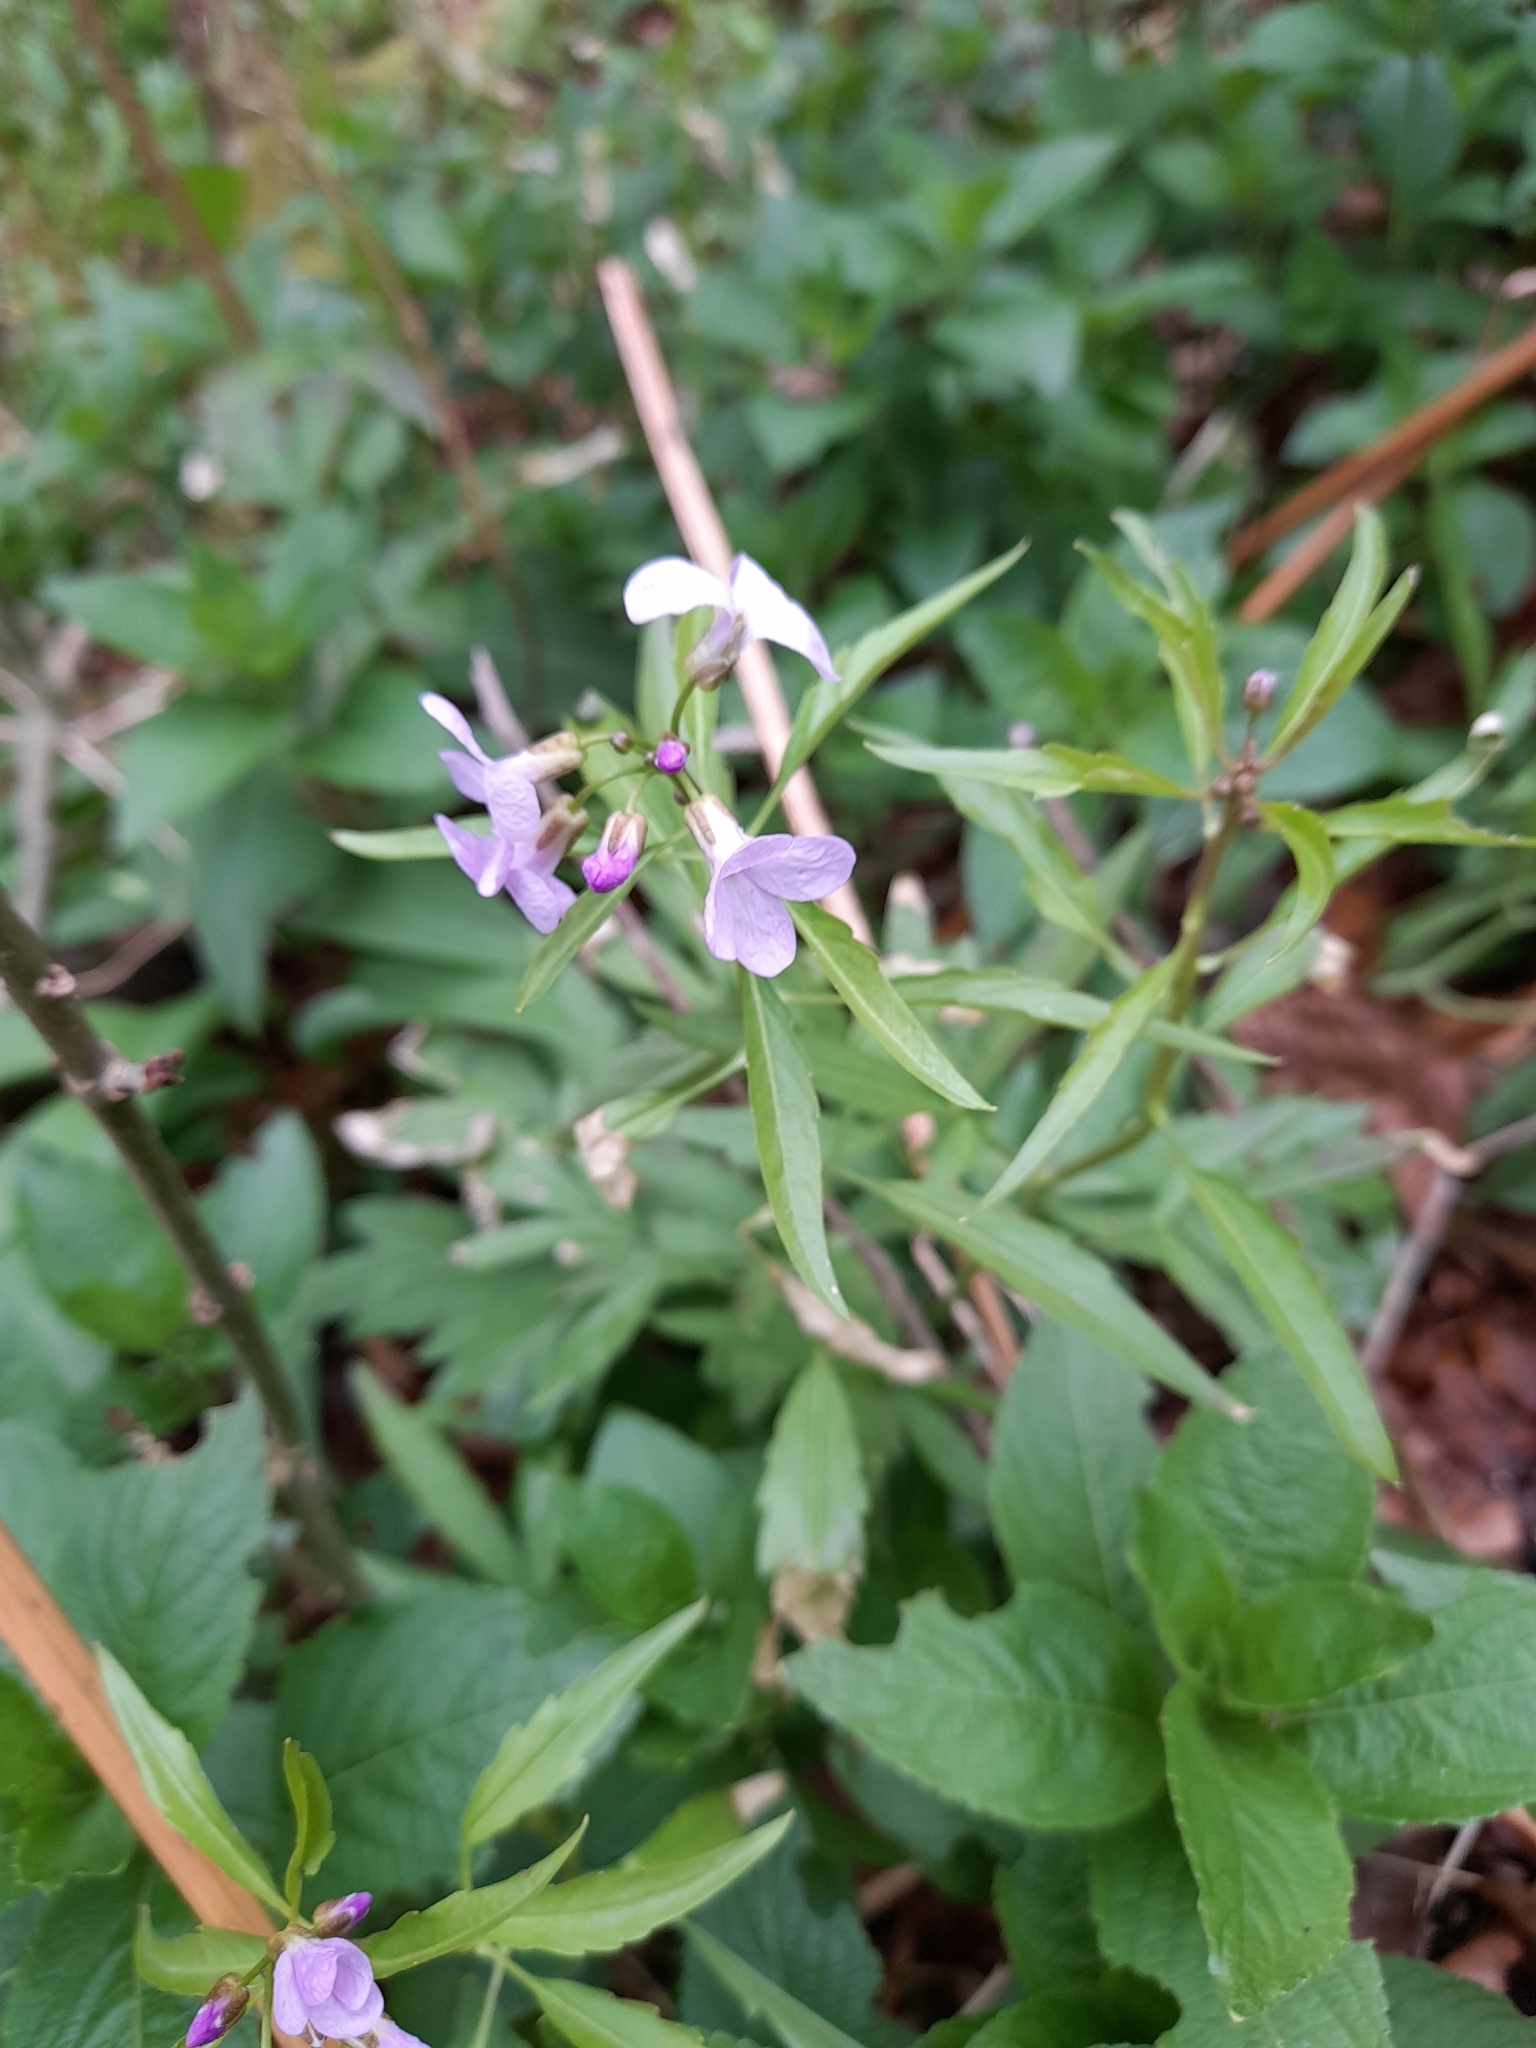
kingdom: Plantae
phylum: Tracheophyta
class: Magnoliopsida
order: Brassicales
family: Brassicaceae
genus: Cardamine
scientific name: Cardamine bulbifera
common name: Coralroot bittercress
